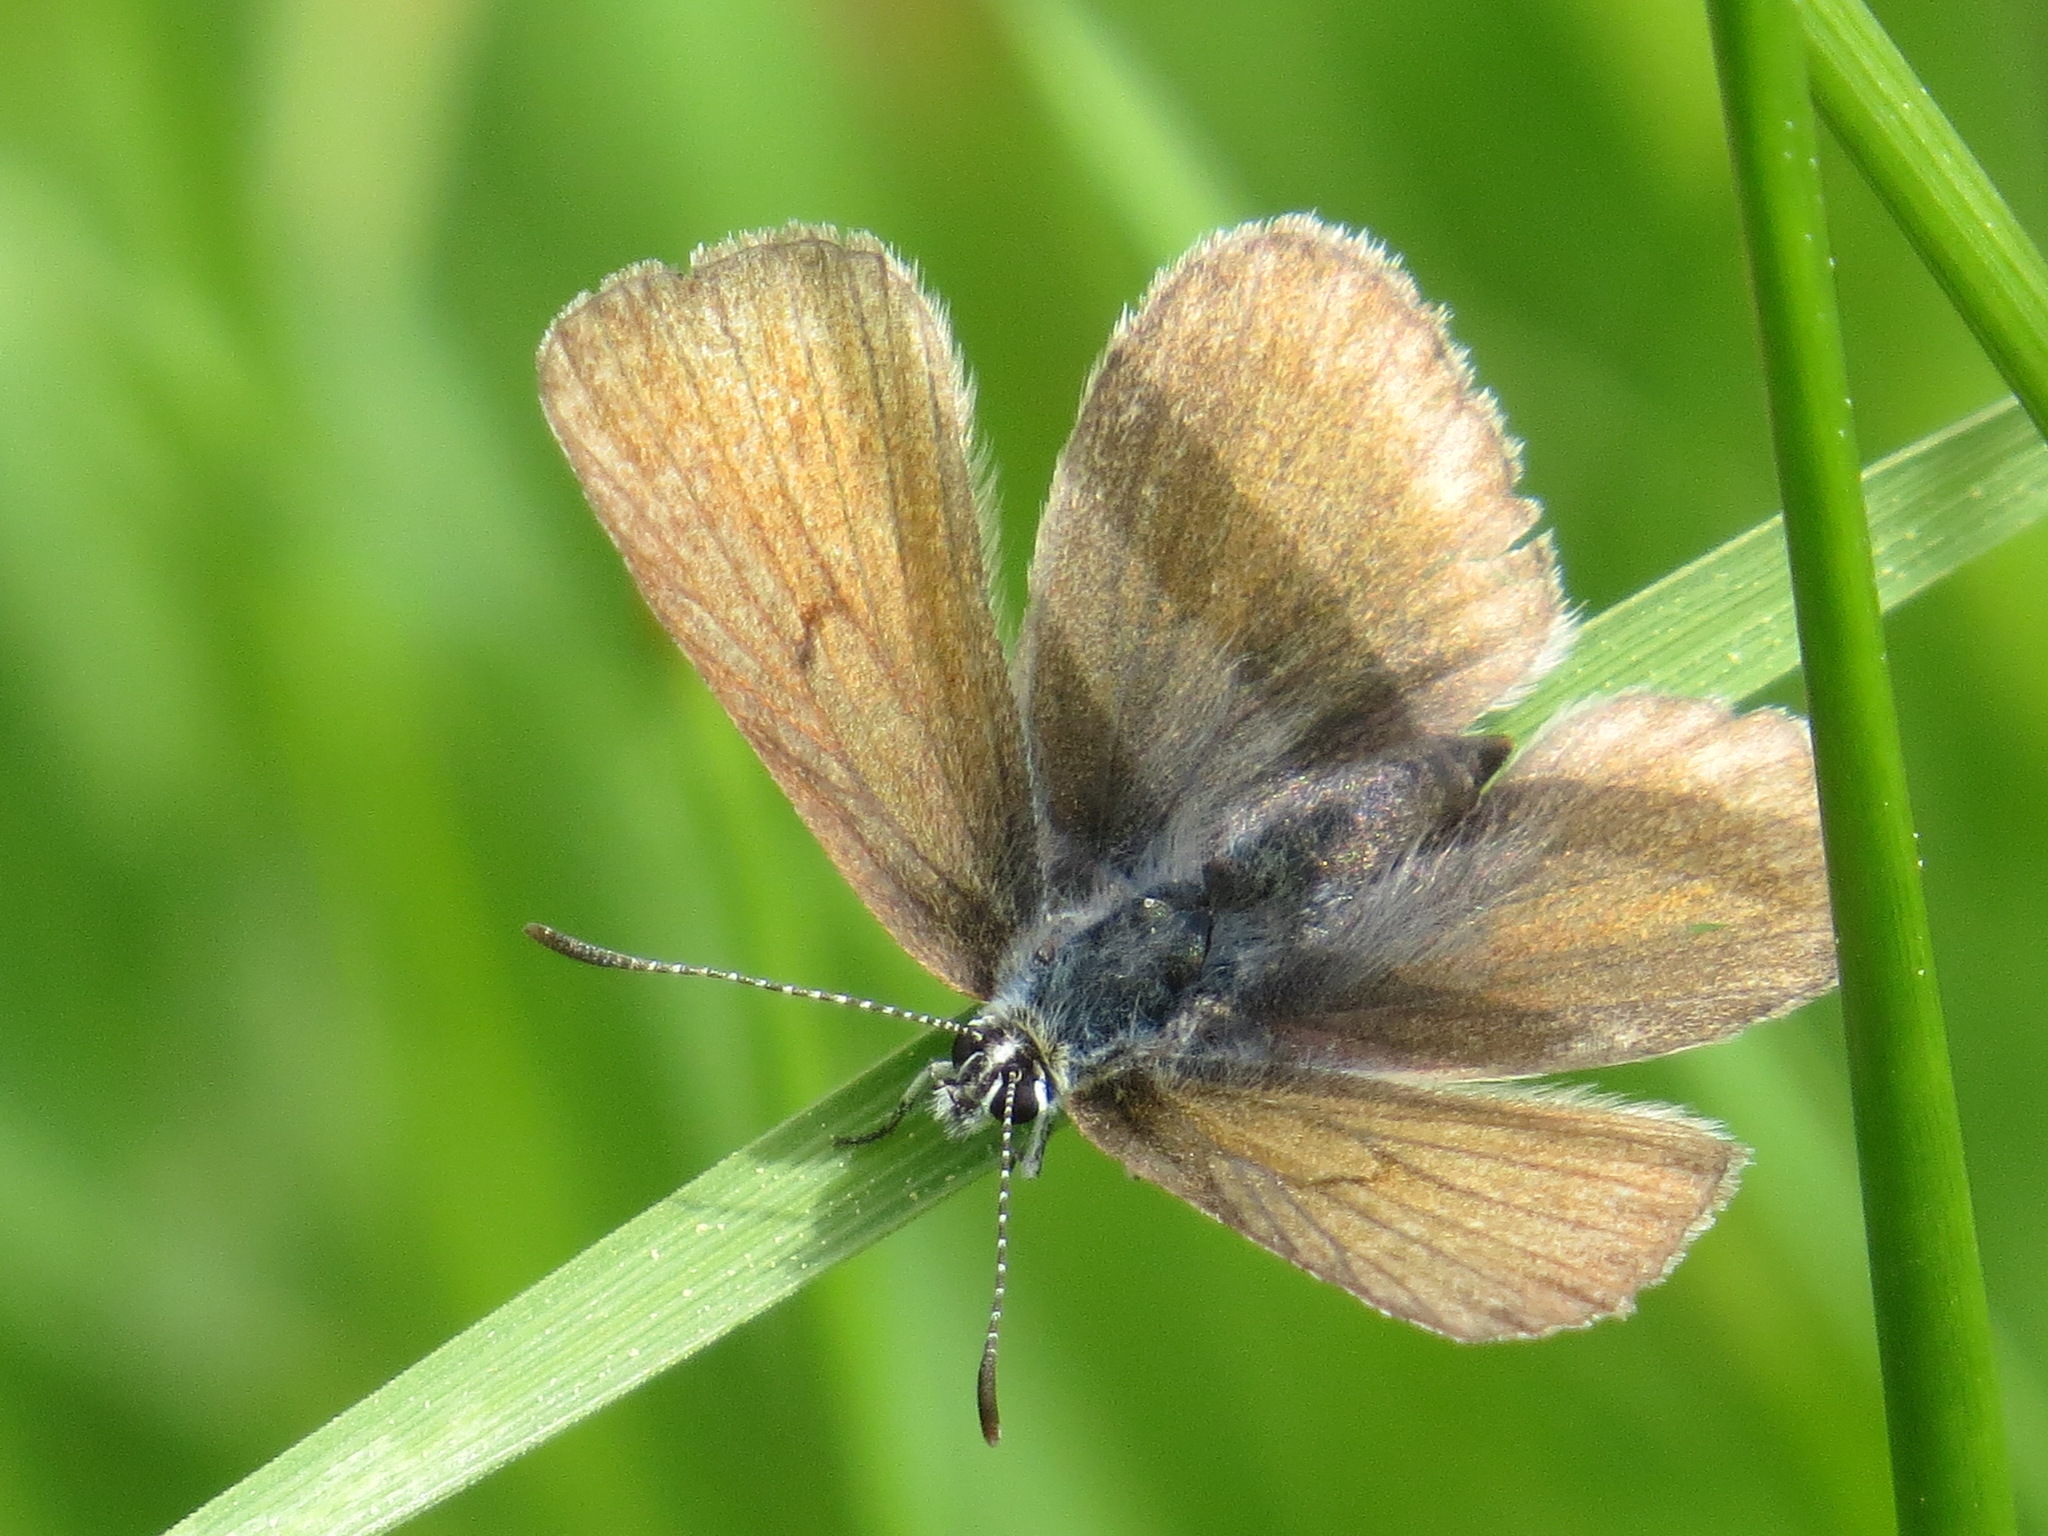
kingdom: Animalia
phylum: Arthropoda
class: Insecta
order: Lepidoptera
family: Lycaenidae
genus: Icaricia
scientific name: Icaricia saepiolus
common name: Greenish blue
